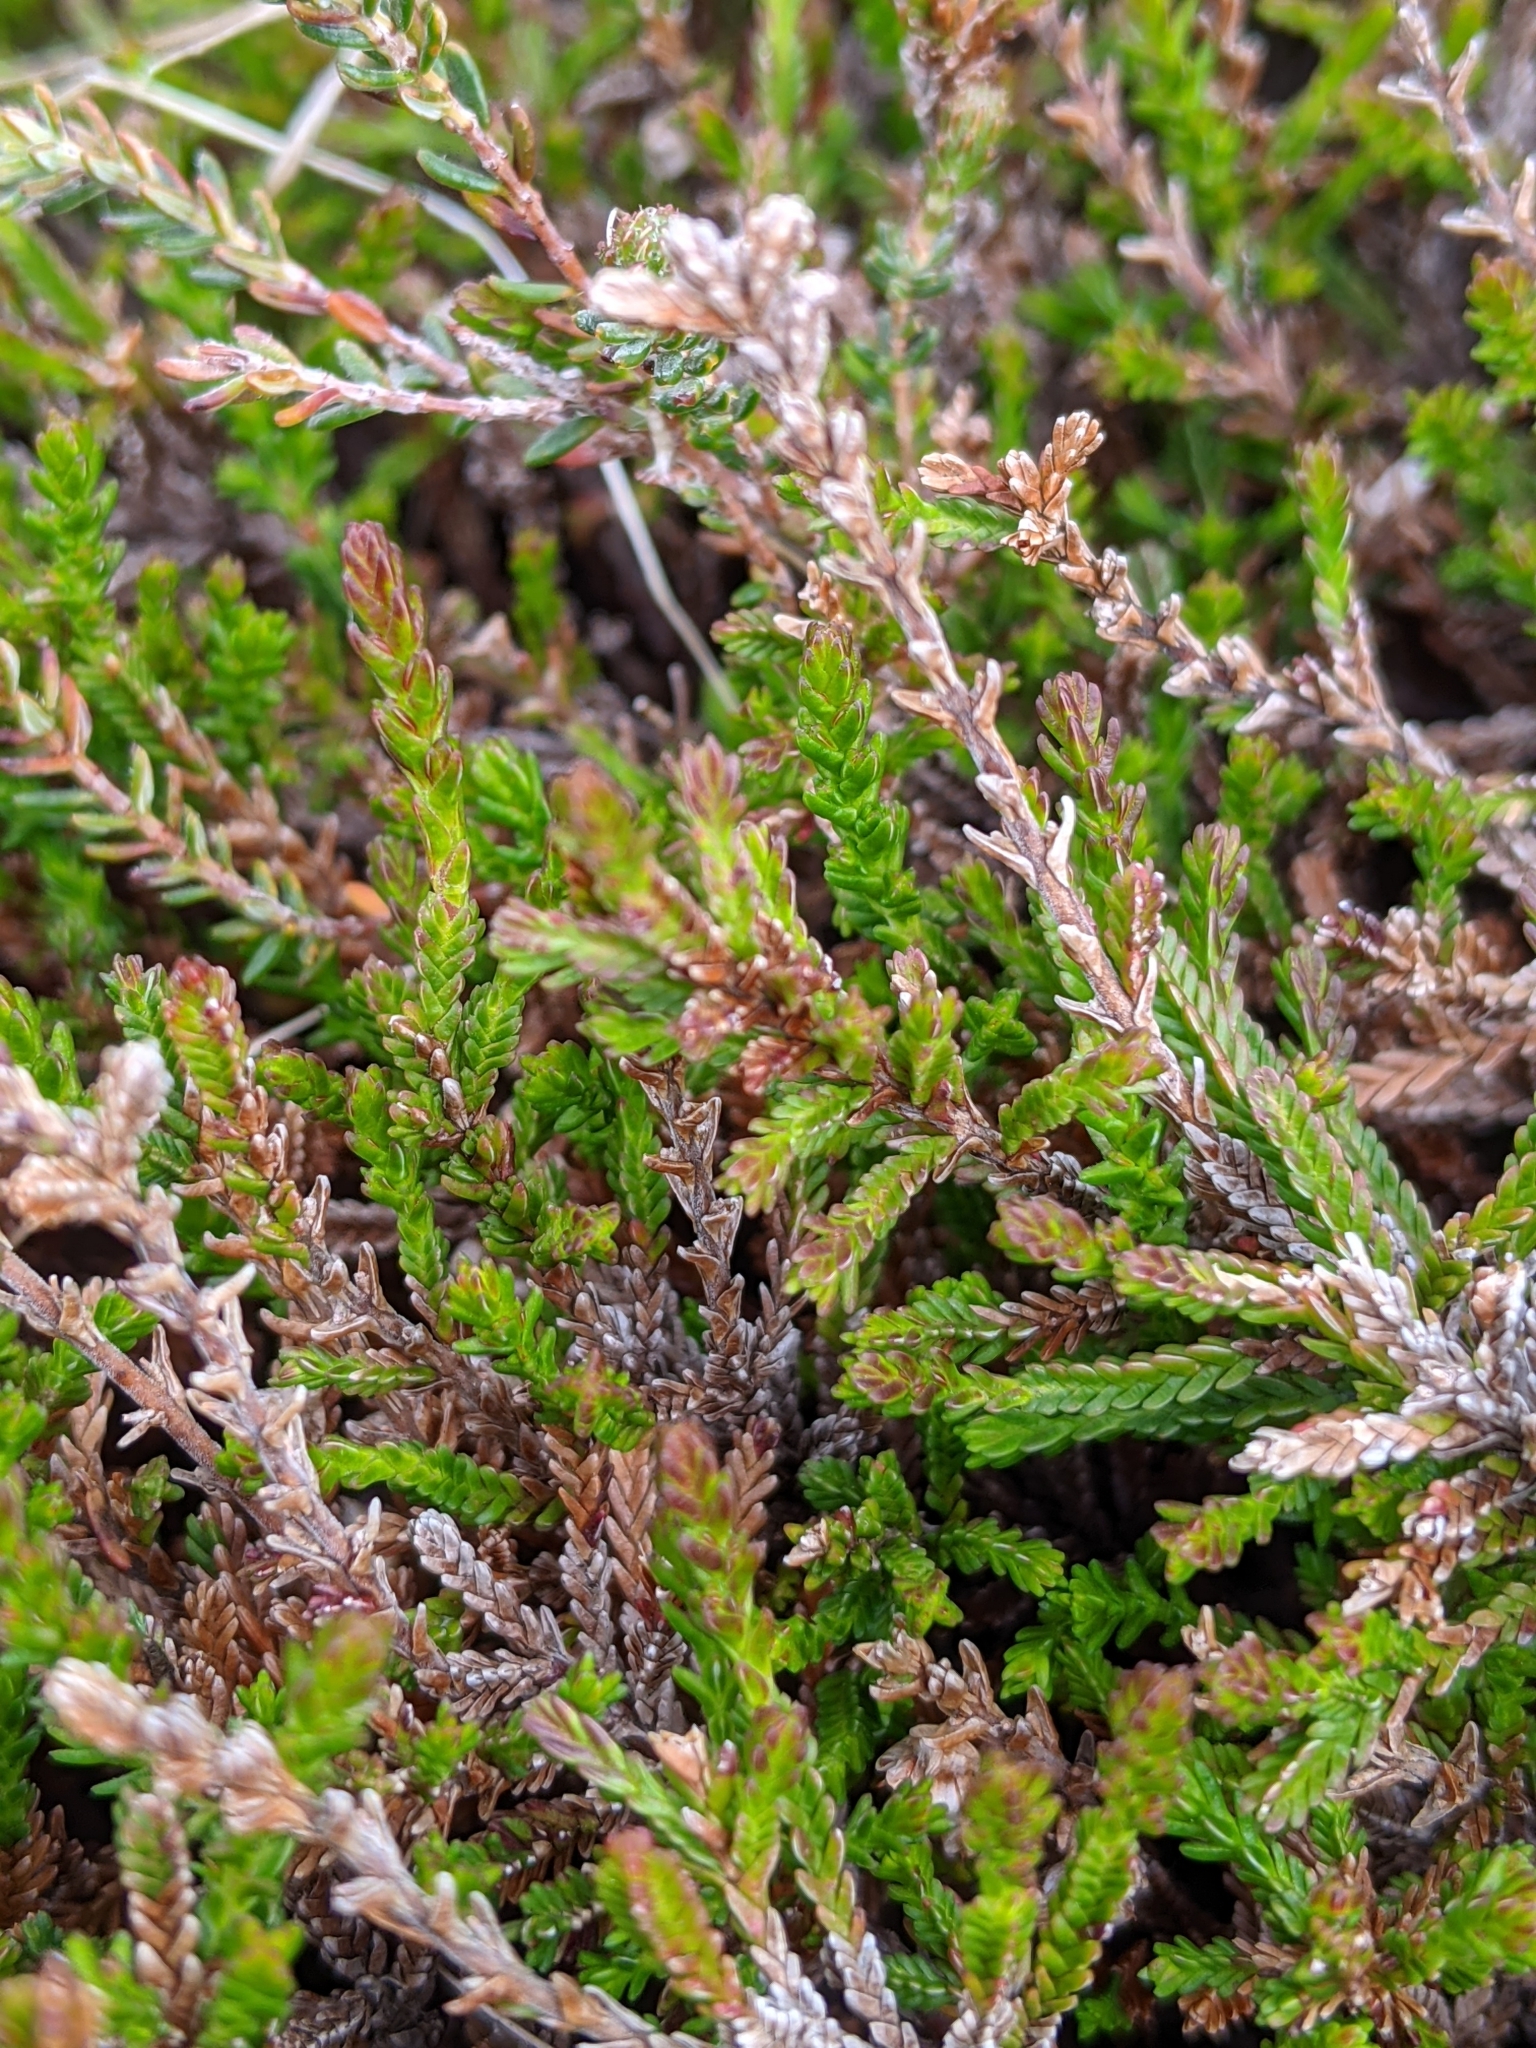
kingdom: Plantae
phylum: Tracheophyta
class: Magnoliopsida
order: Ericales
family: Ericaceae
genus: Calluna
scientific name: Calluna vulgaris
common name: Heather
